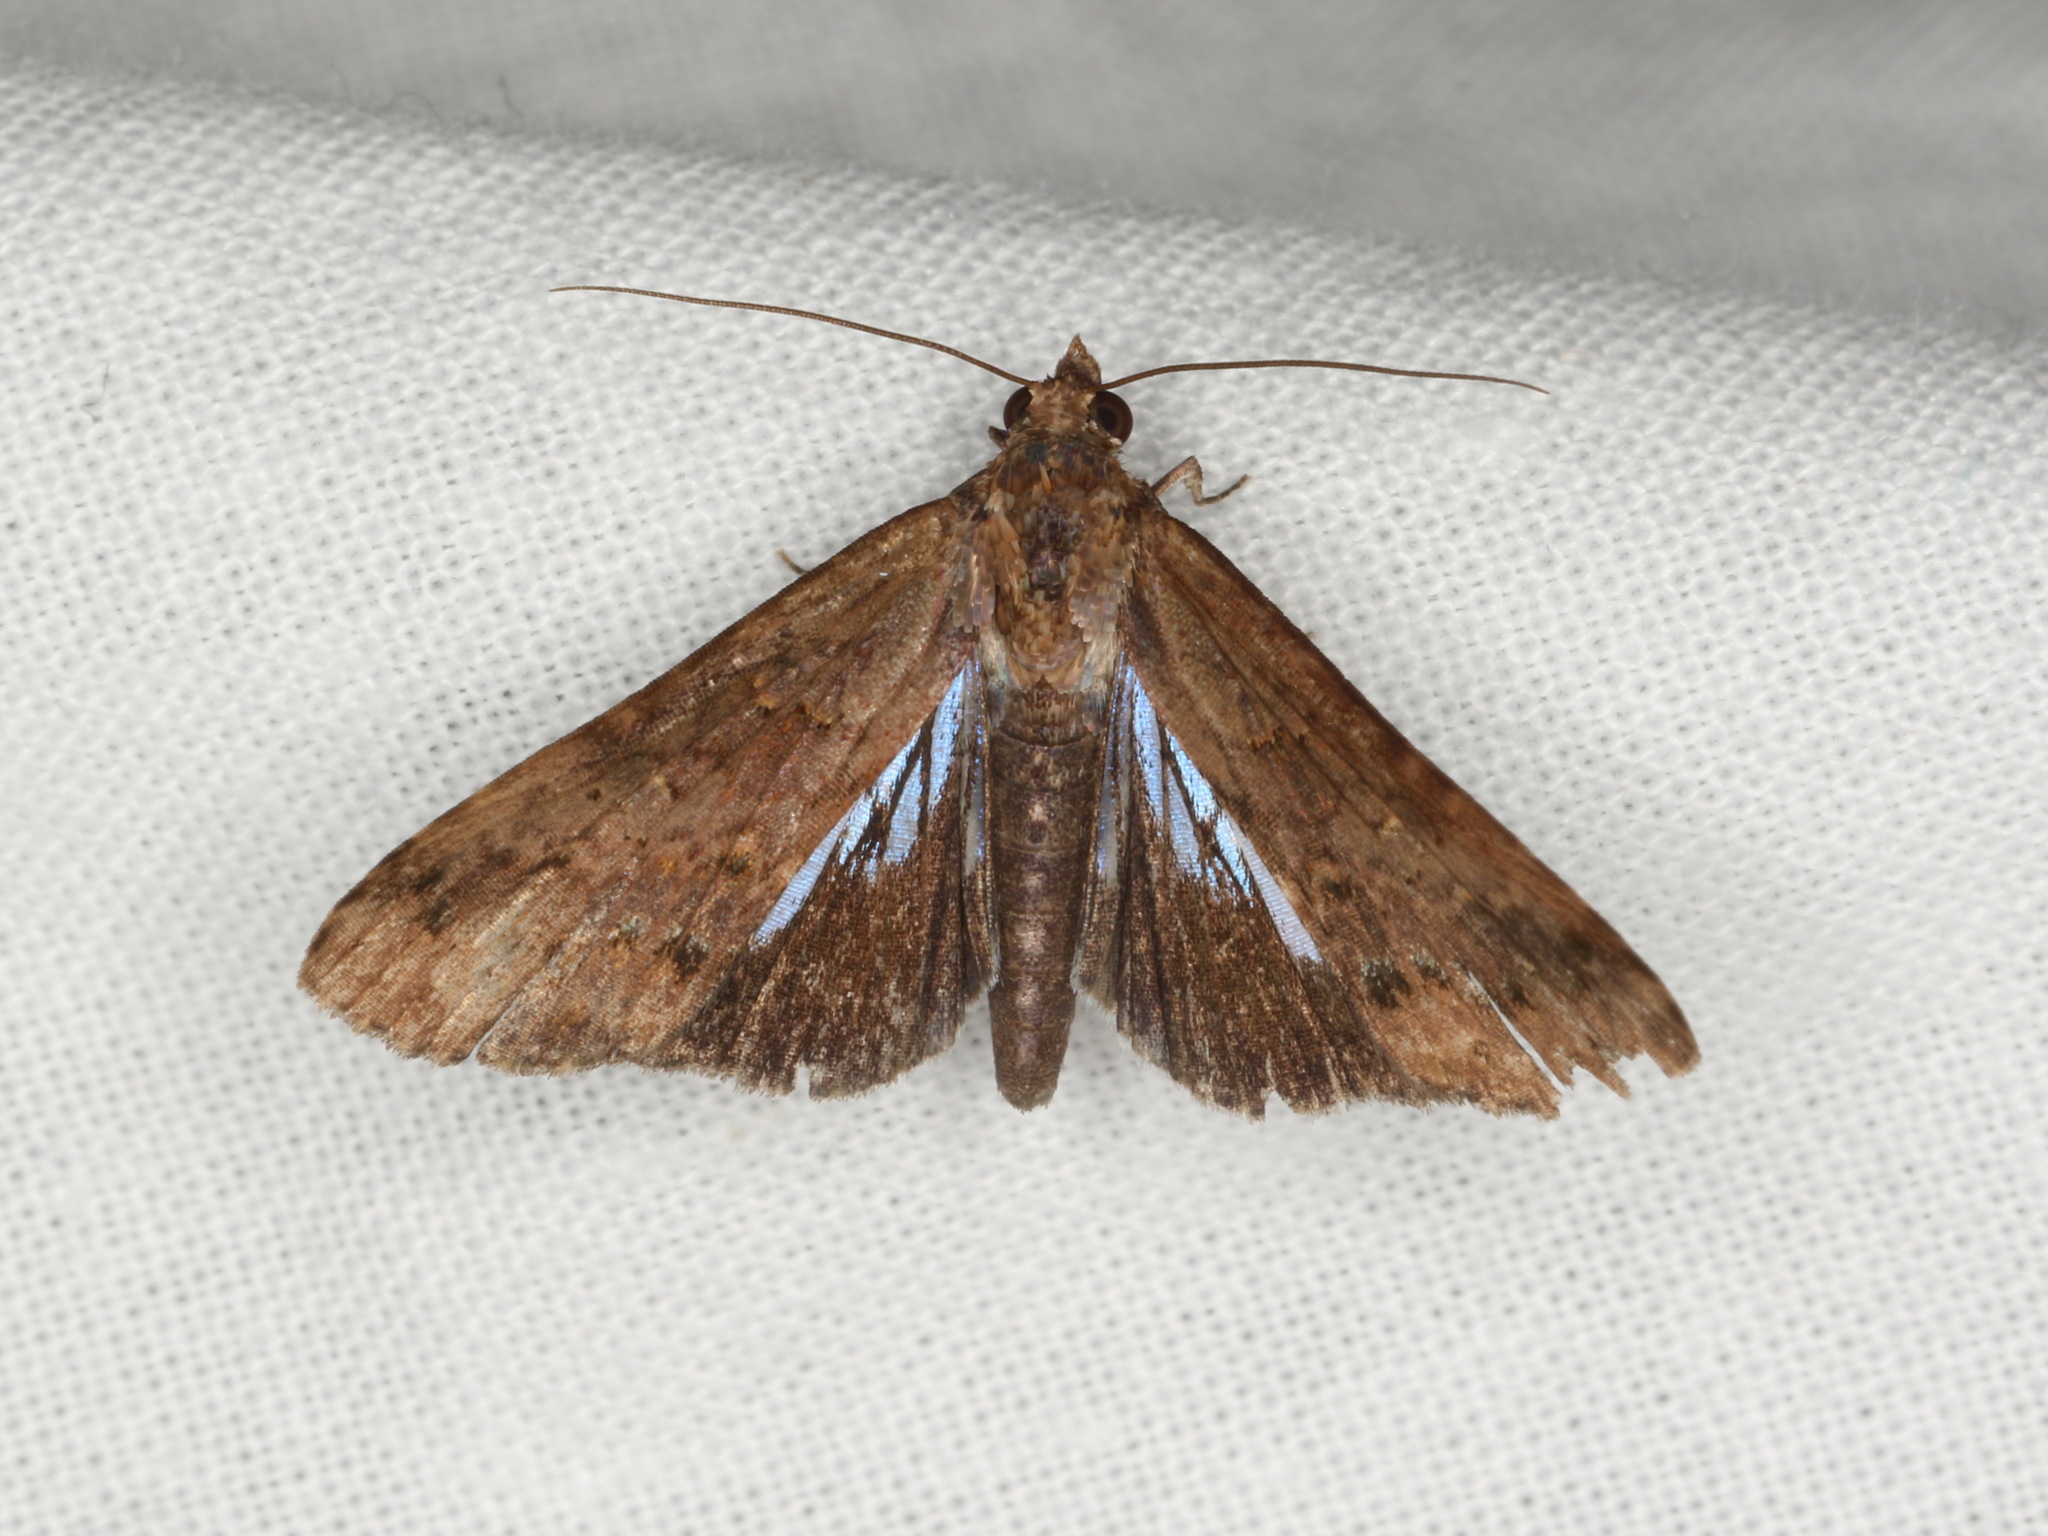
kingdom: Animalia
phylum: Arthropoda
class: Insecta
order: Lepidoptera
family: Euteliidae
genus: Lophoptera
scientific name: Lophoptera abbreviata
